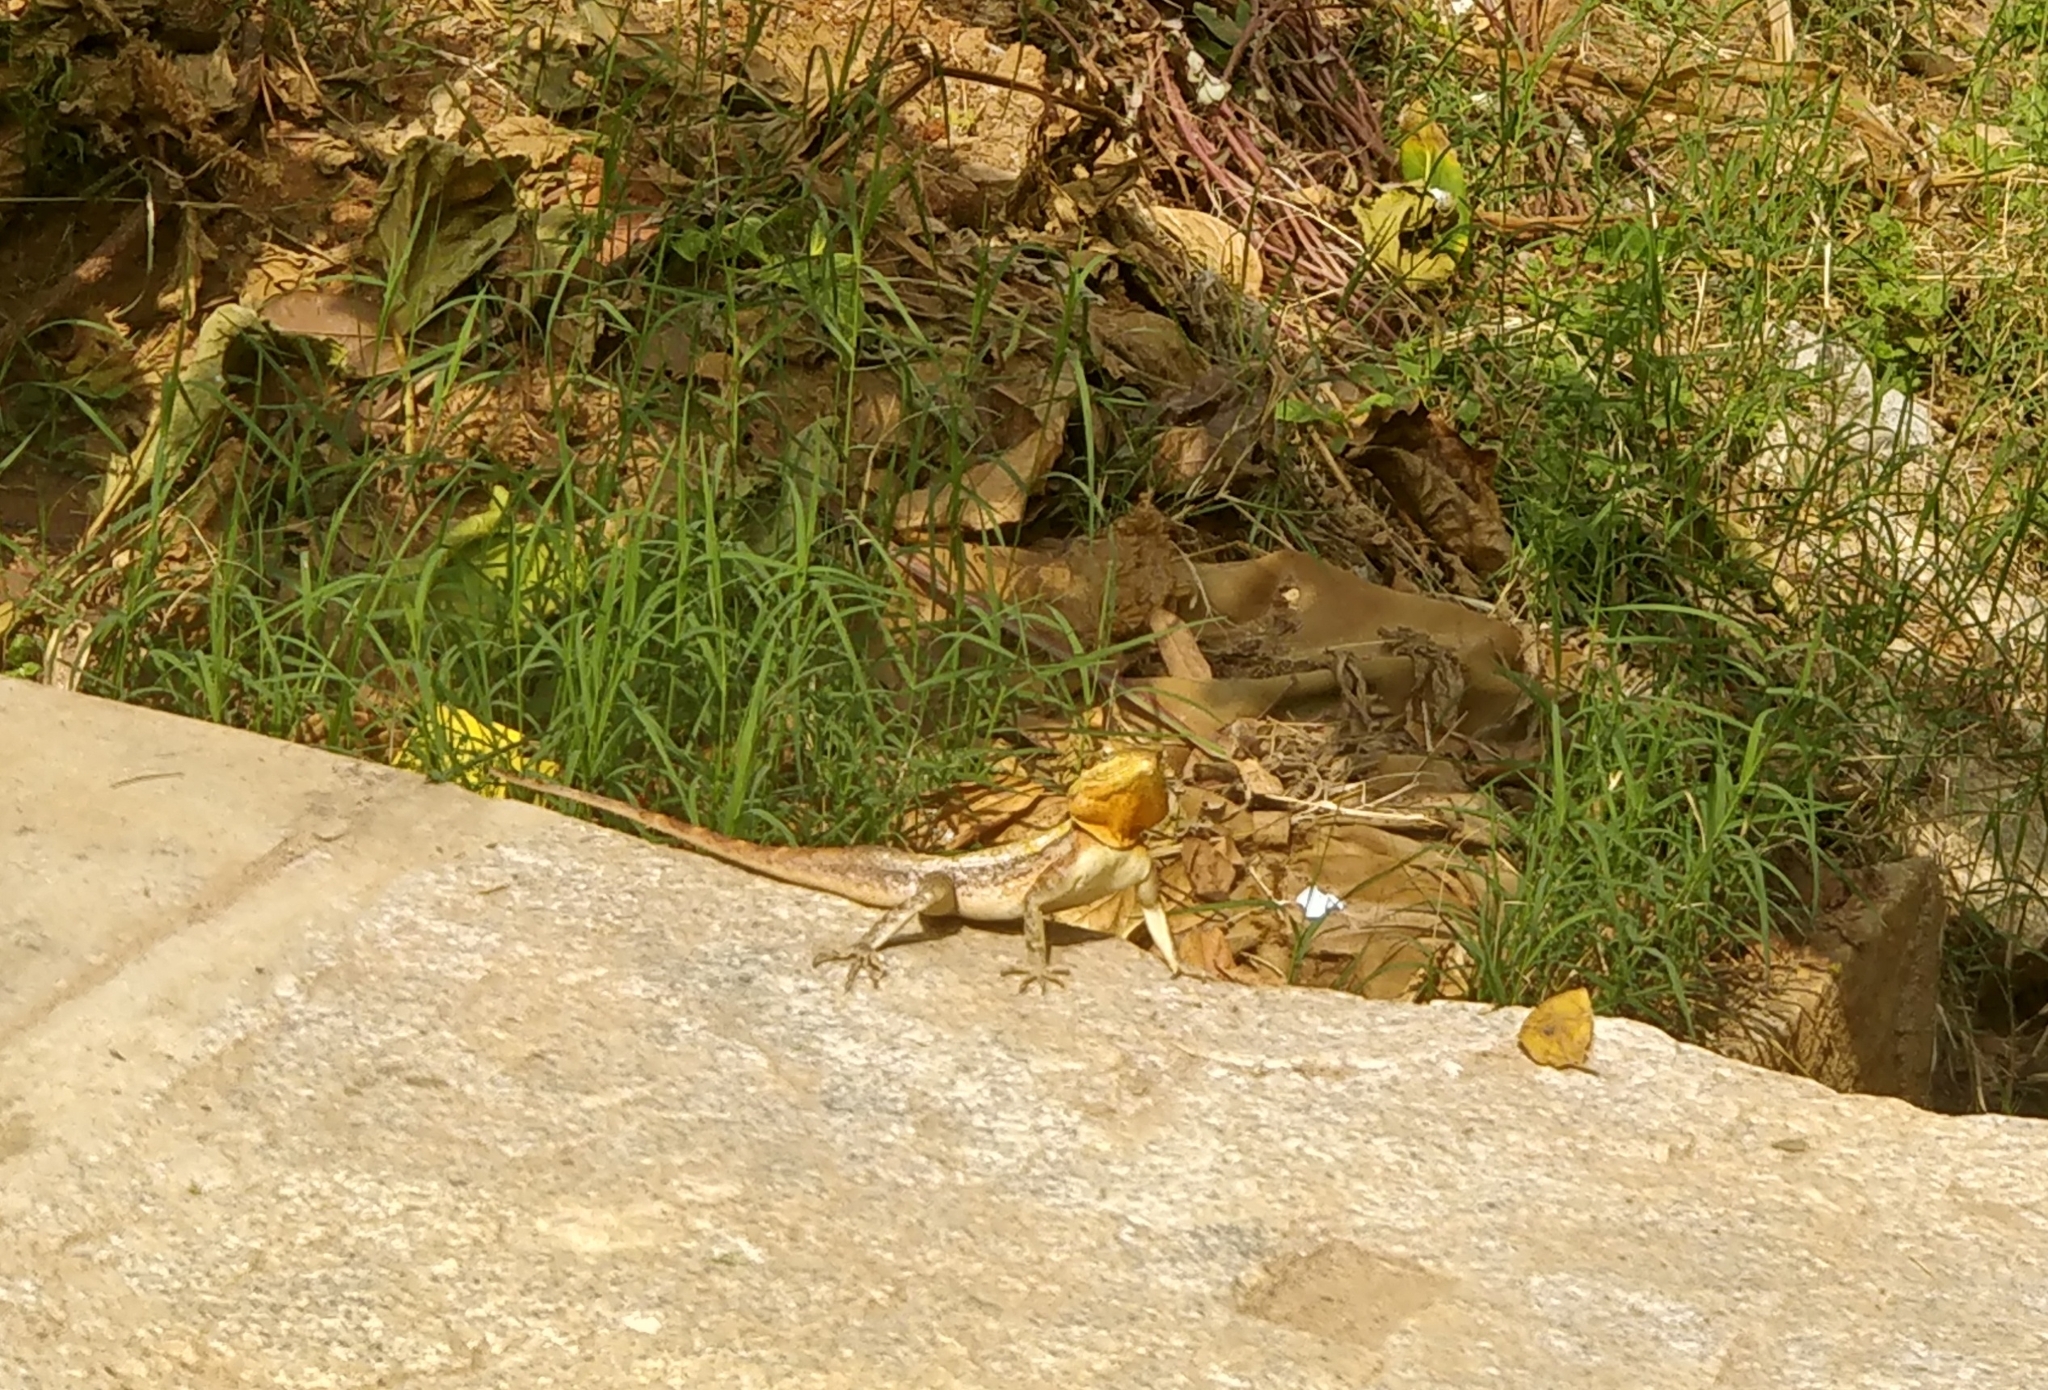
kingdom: Animalia
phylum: Chordata
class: Squamata
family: Agamidae
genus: Psammophilus
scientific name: Psammophilus dorsalis
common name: South indian rock agama
